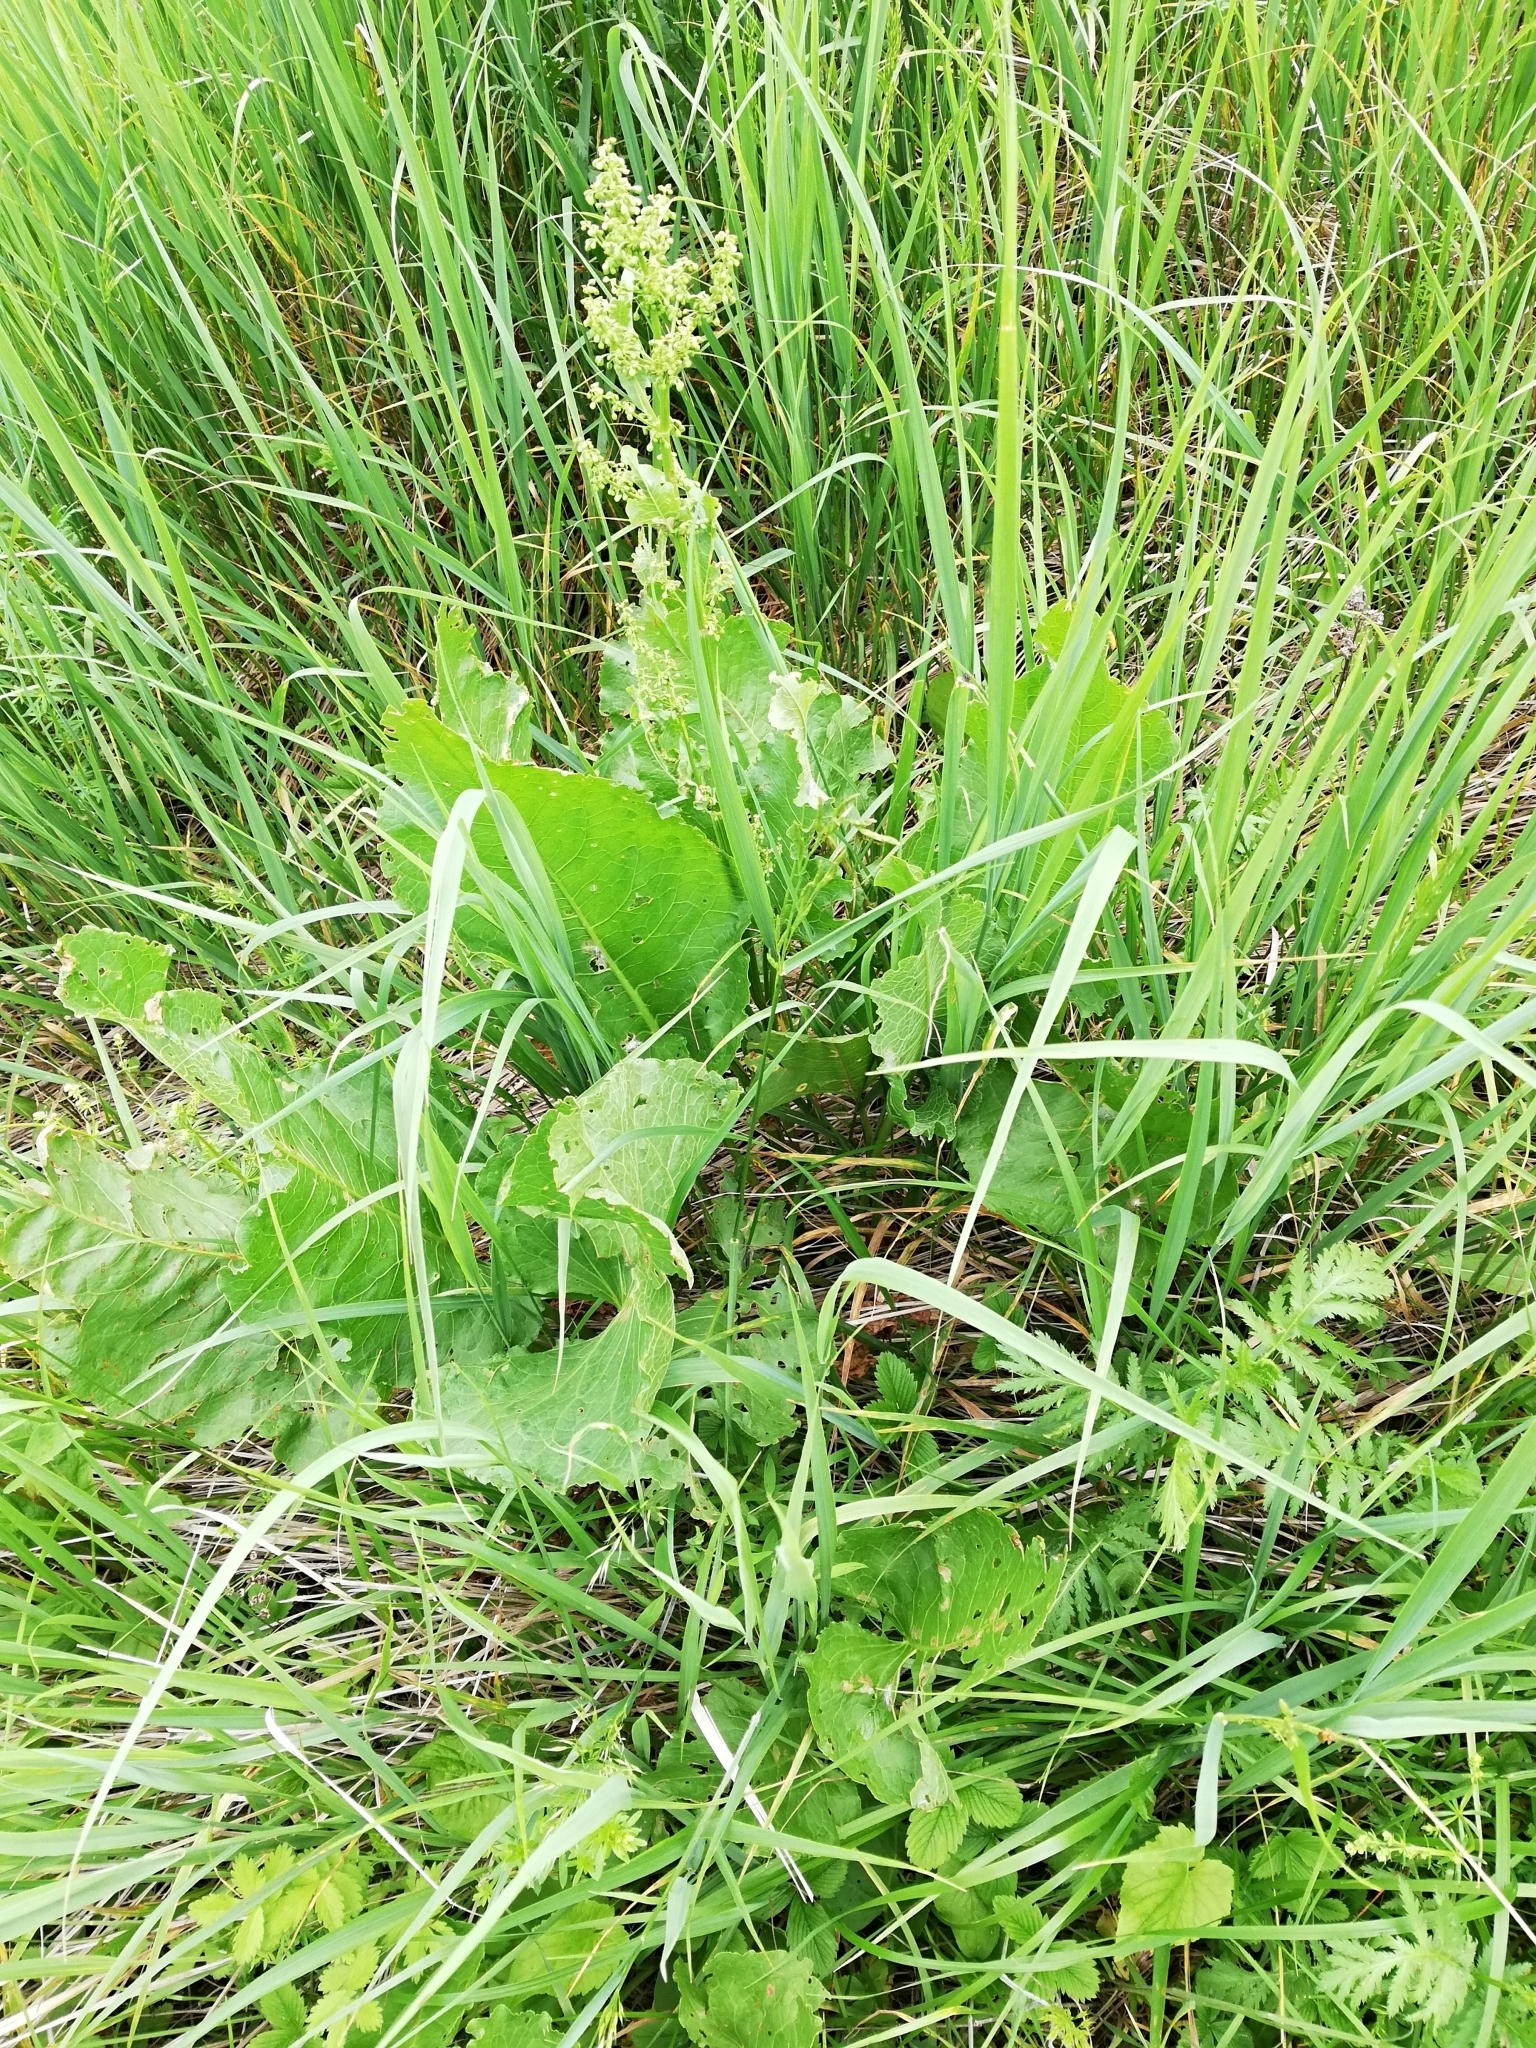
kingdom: Plantae
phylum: Tracheophyta
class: Magnoliopsida
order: Caryophyllales
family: Polygonaceae
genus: Rumex
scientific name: Rumex confertus
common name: Russian dock
